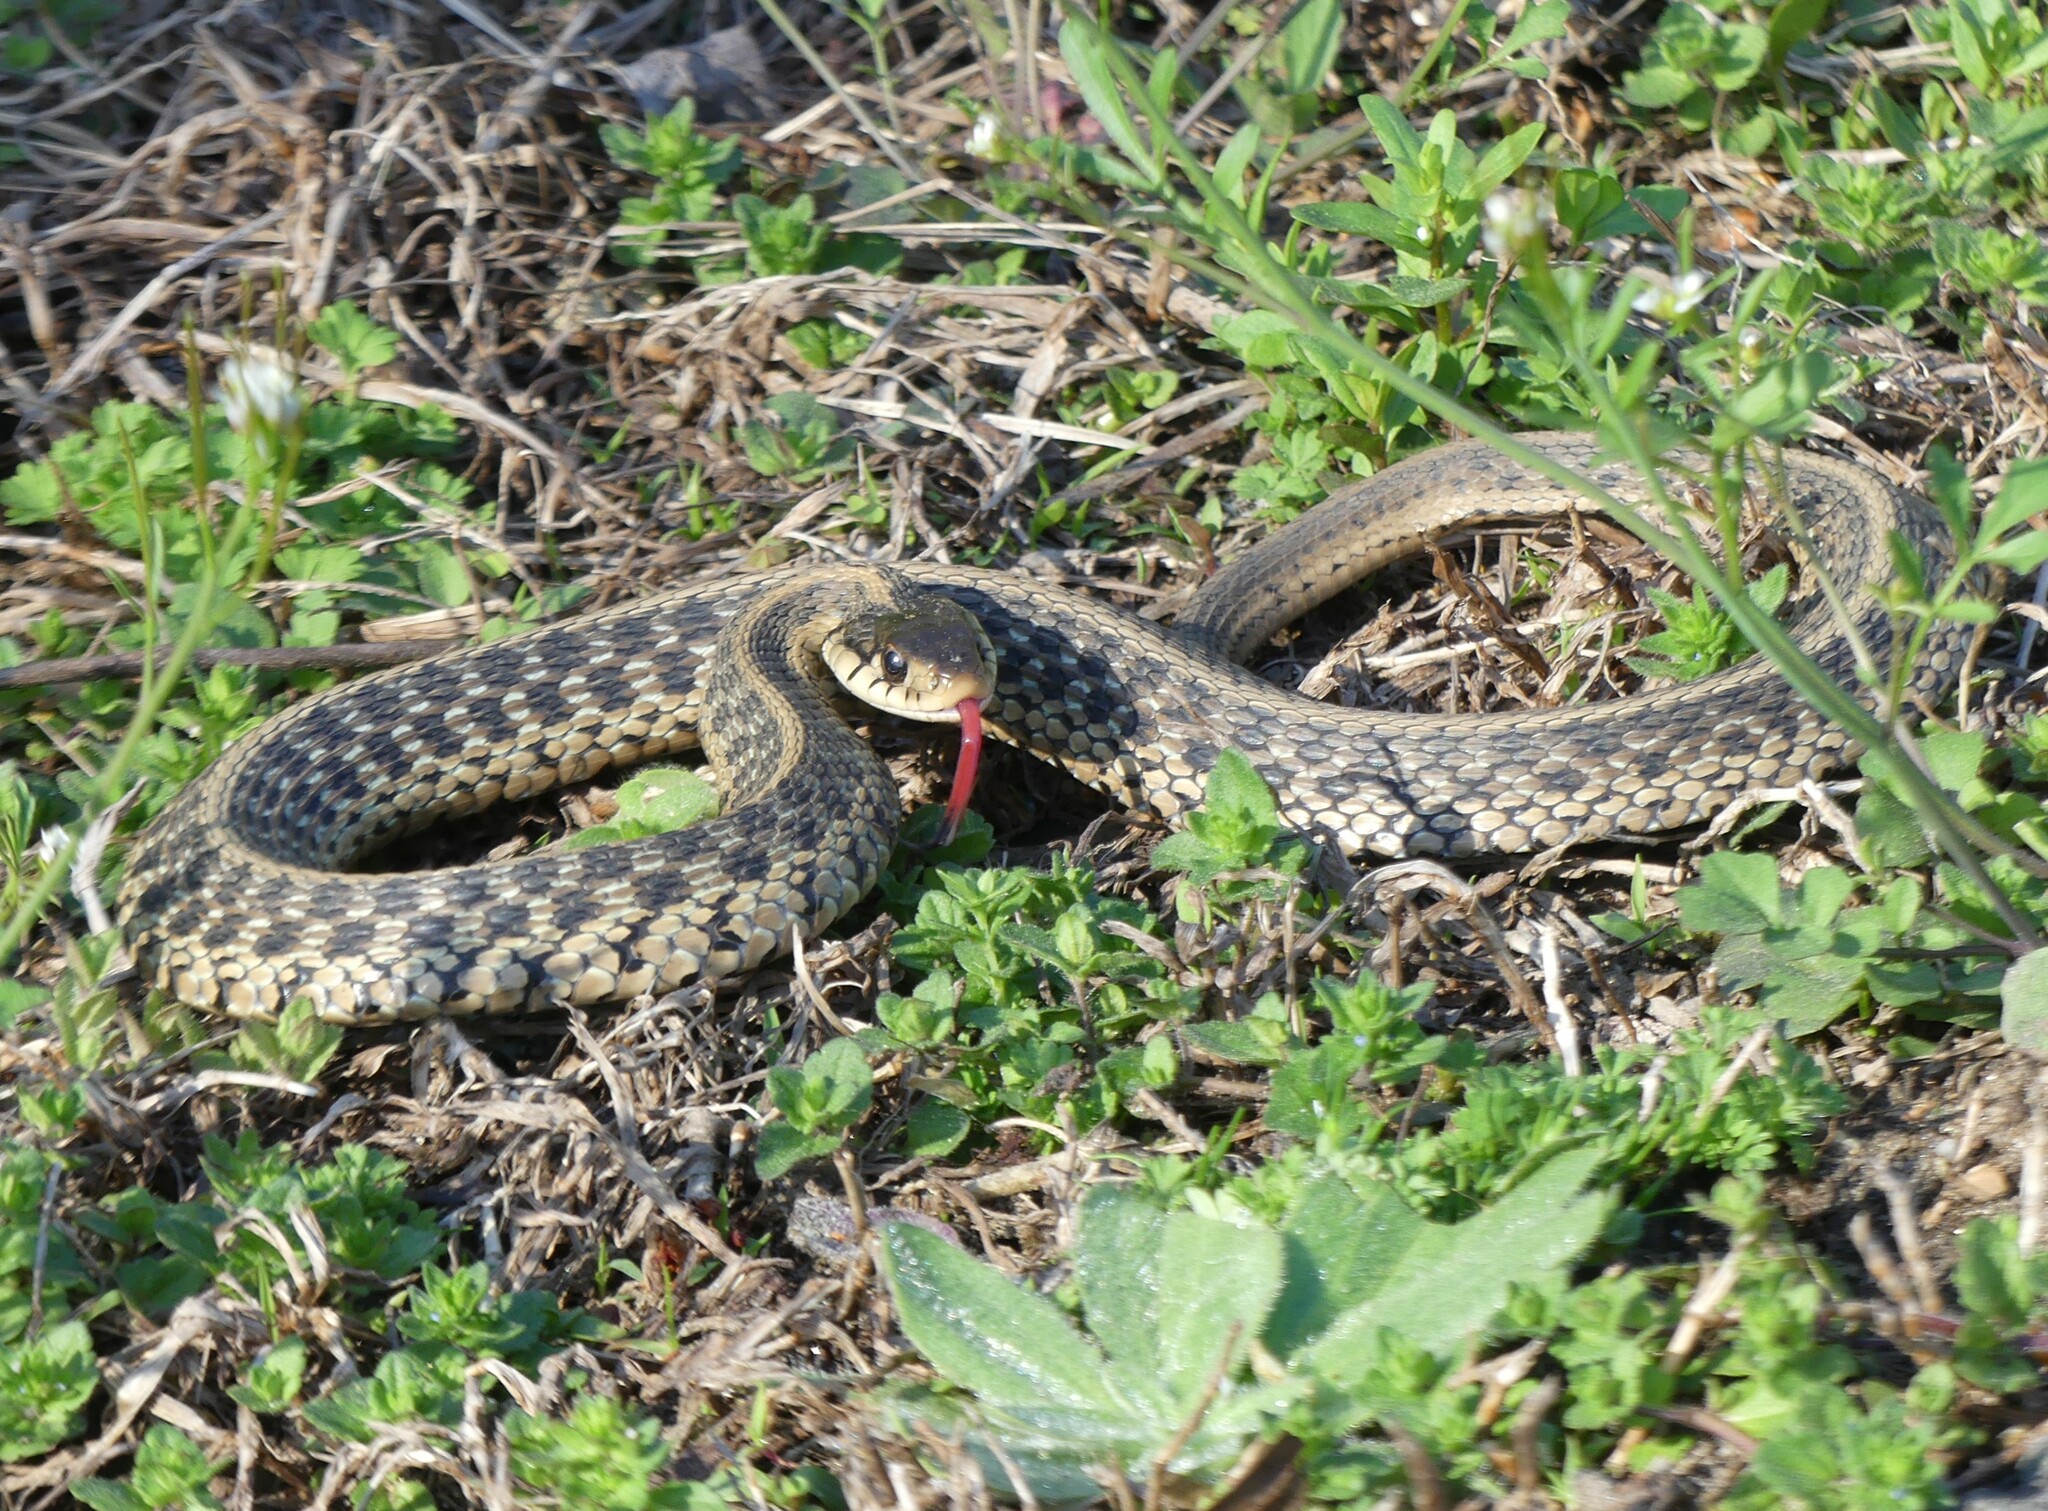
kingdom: Animalia
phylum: Chordata
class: Squamata
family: Colubridae
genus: Thamnophis
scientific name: Thamnophis sirtalis
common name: Common garter snake
